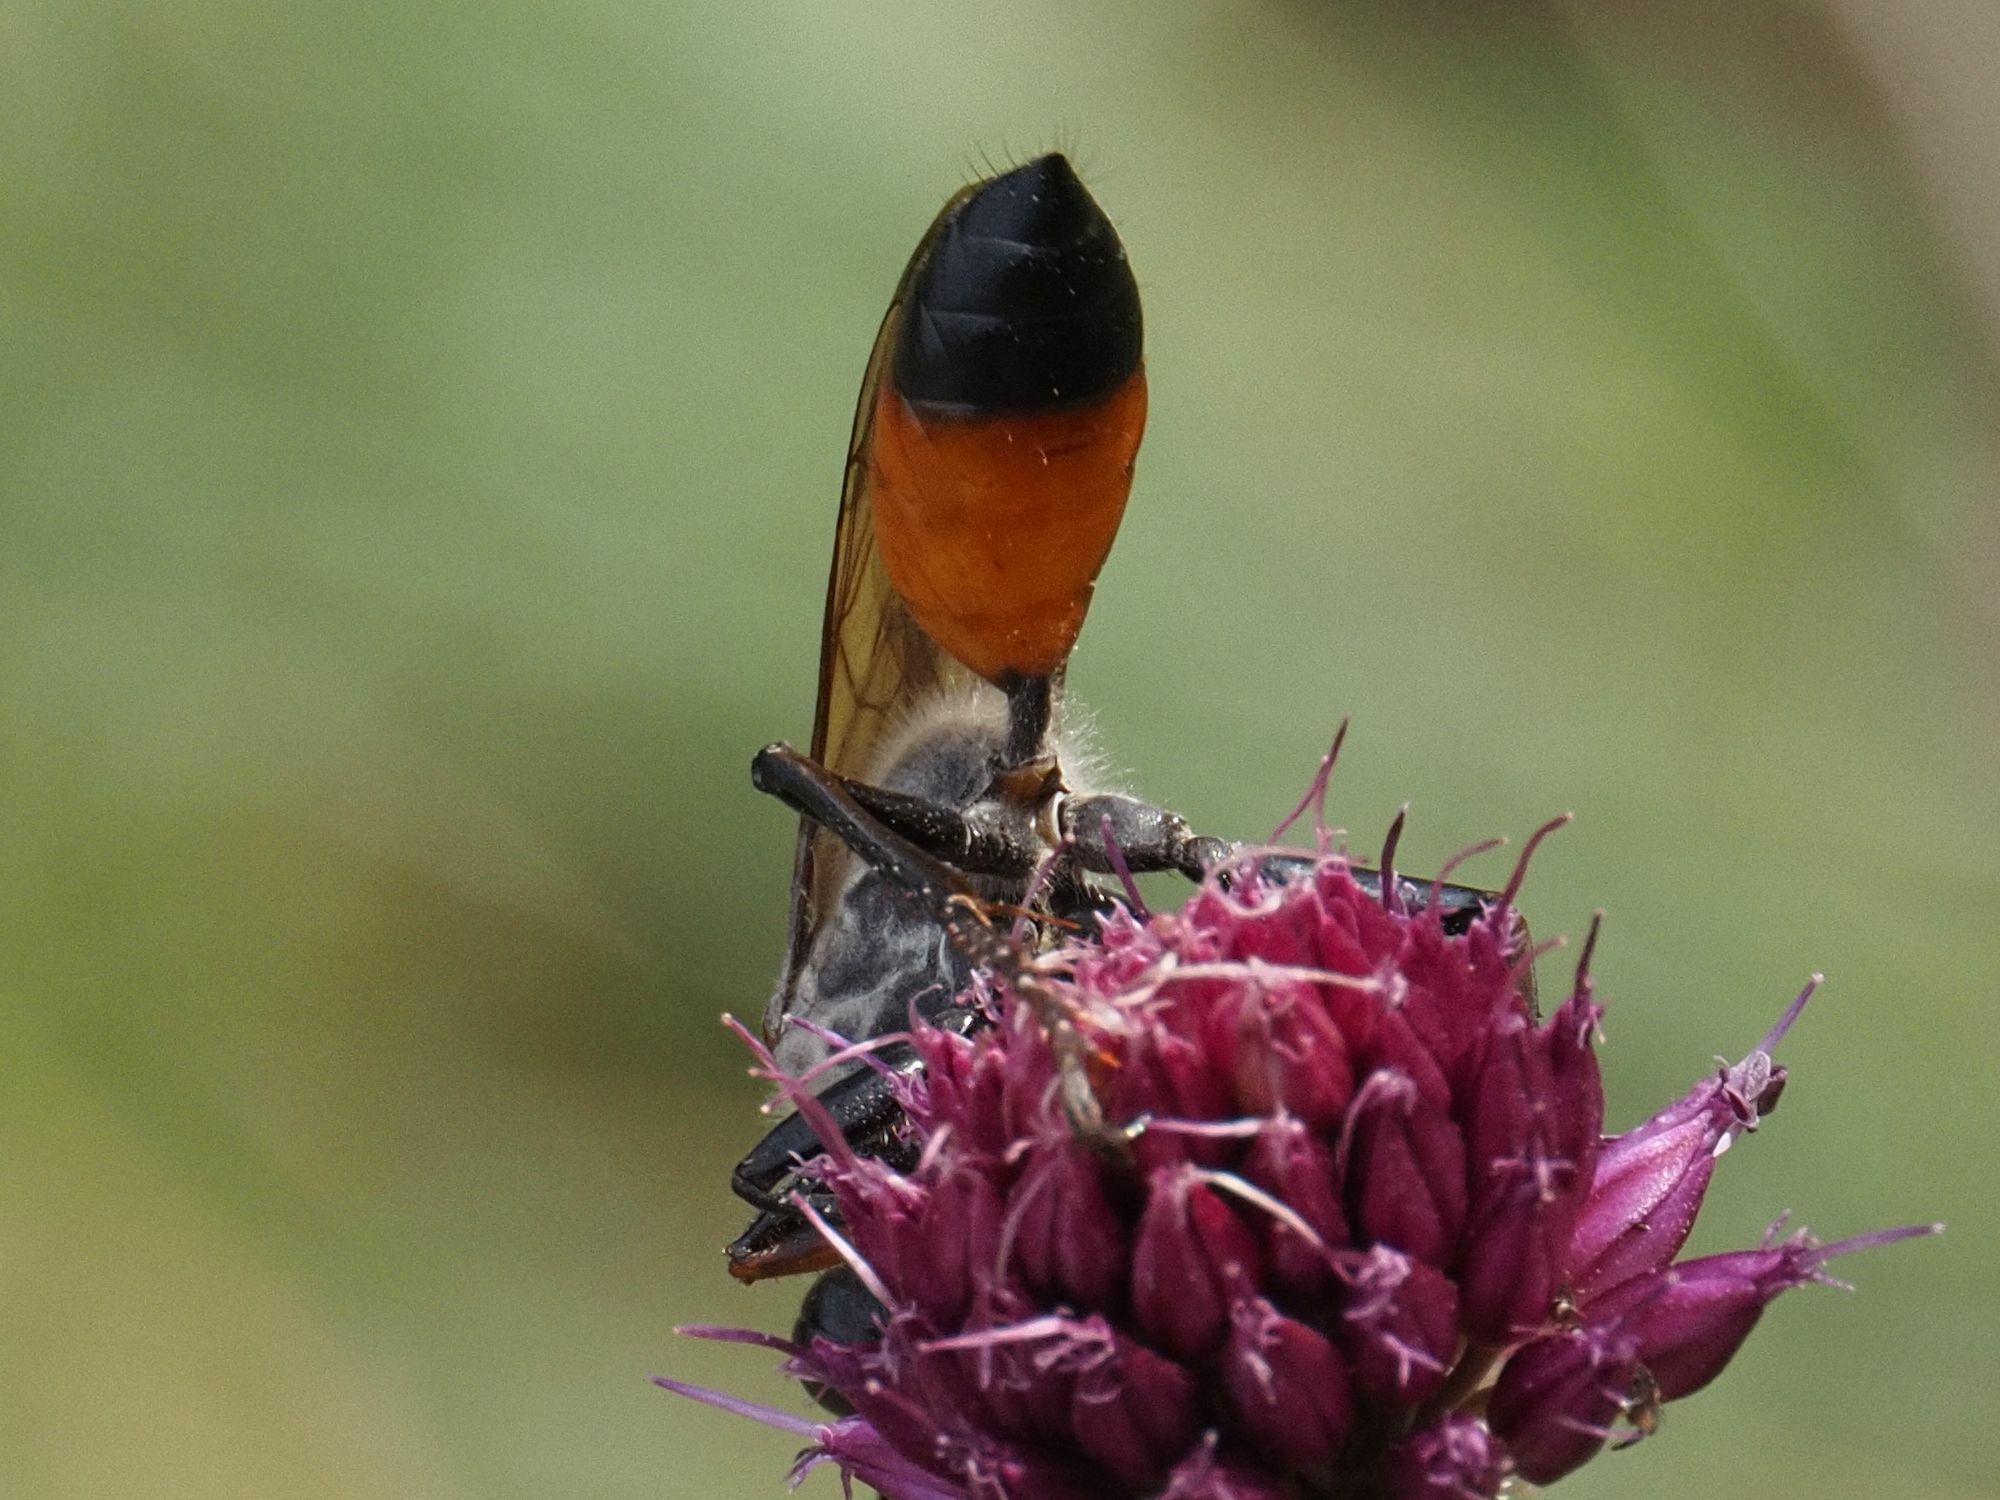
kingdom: Animalia
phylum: Arthropoda
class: Insecta
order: Hymenoptera
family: Sphecidae
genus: Sphex
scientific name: Sphex funerarius
